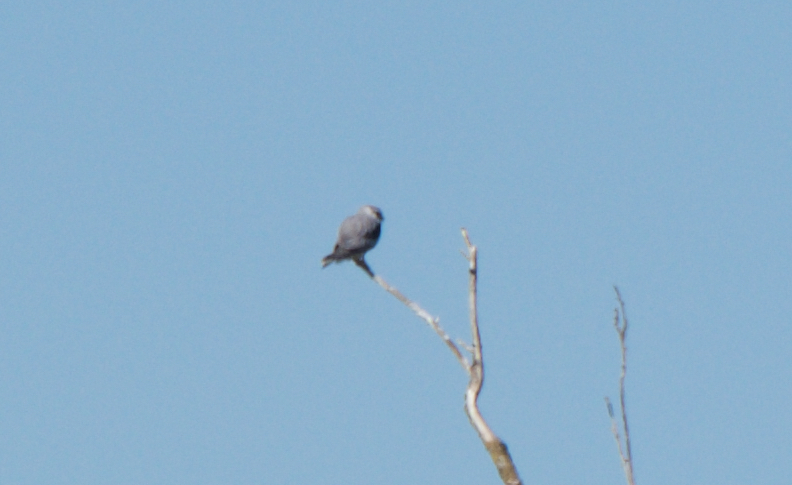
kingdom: Animalia
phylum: Chordata
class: Aves
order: Accipitriformes
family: Accipitridae
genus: Elanus
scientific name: Elanus leucurus
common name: White-tailed kite
